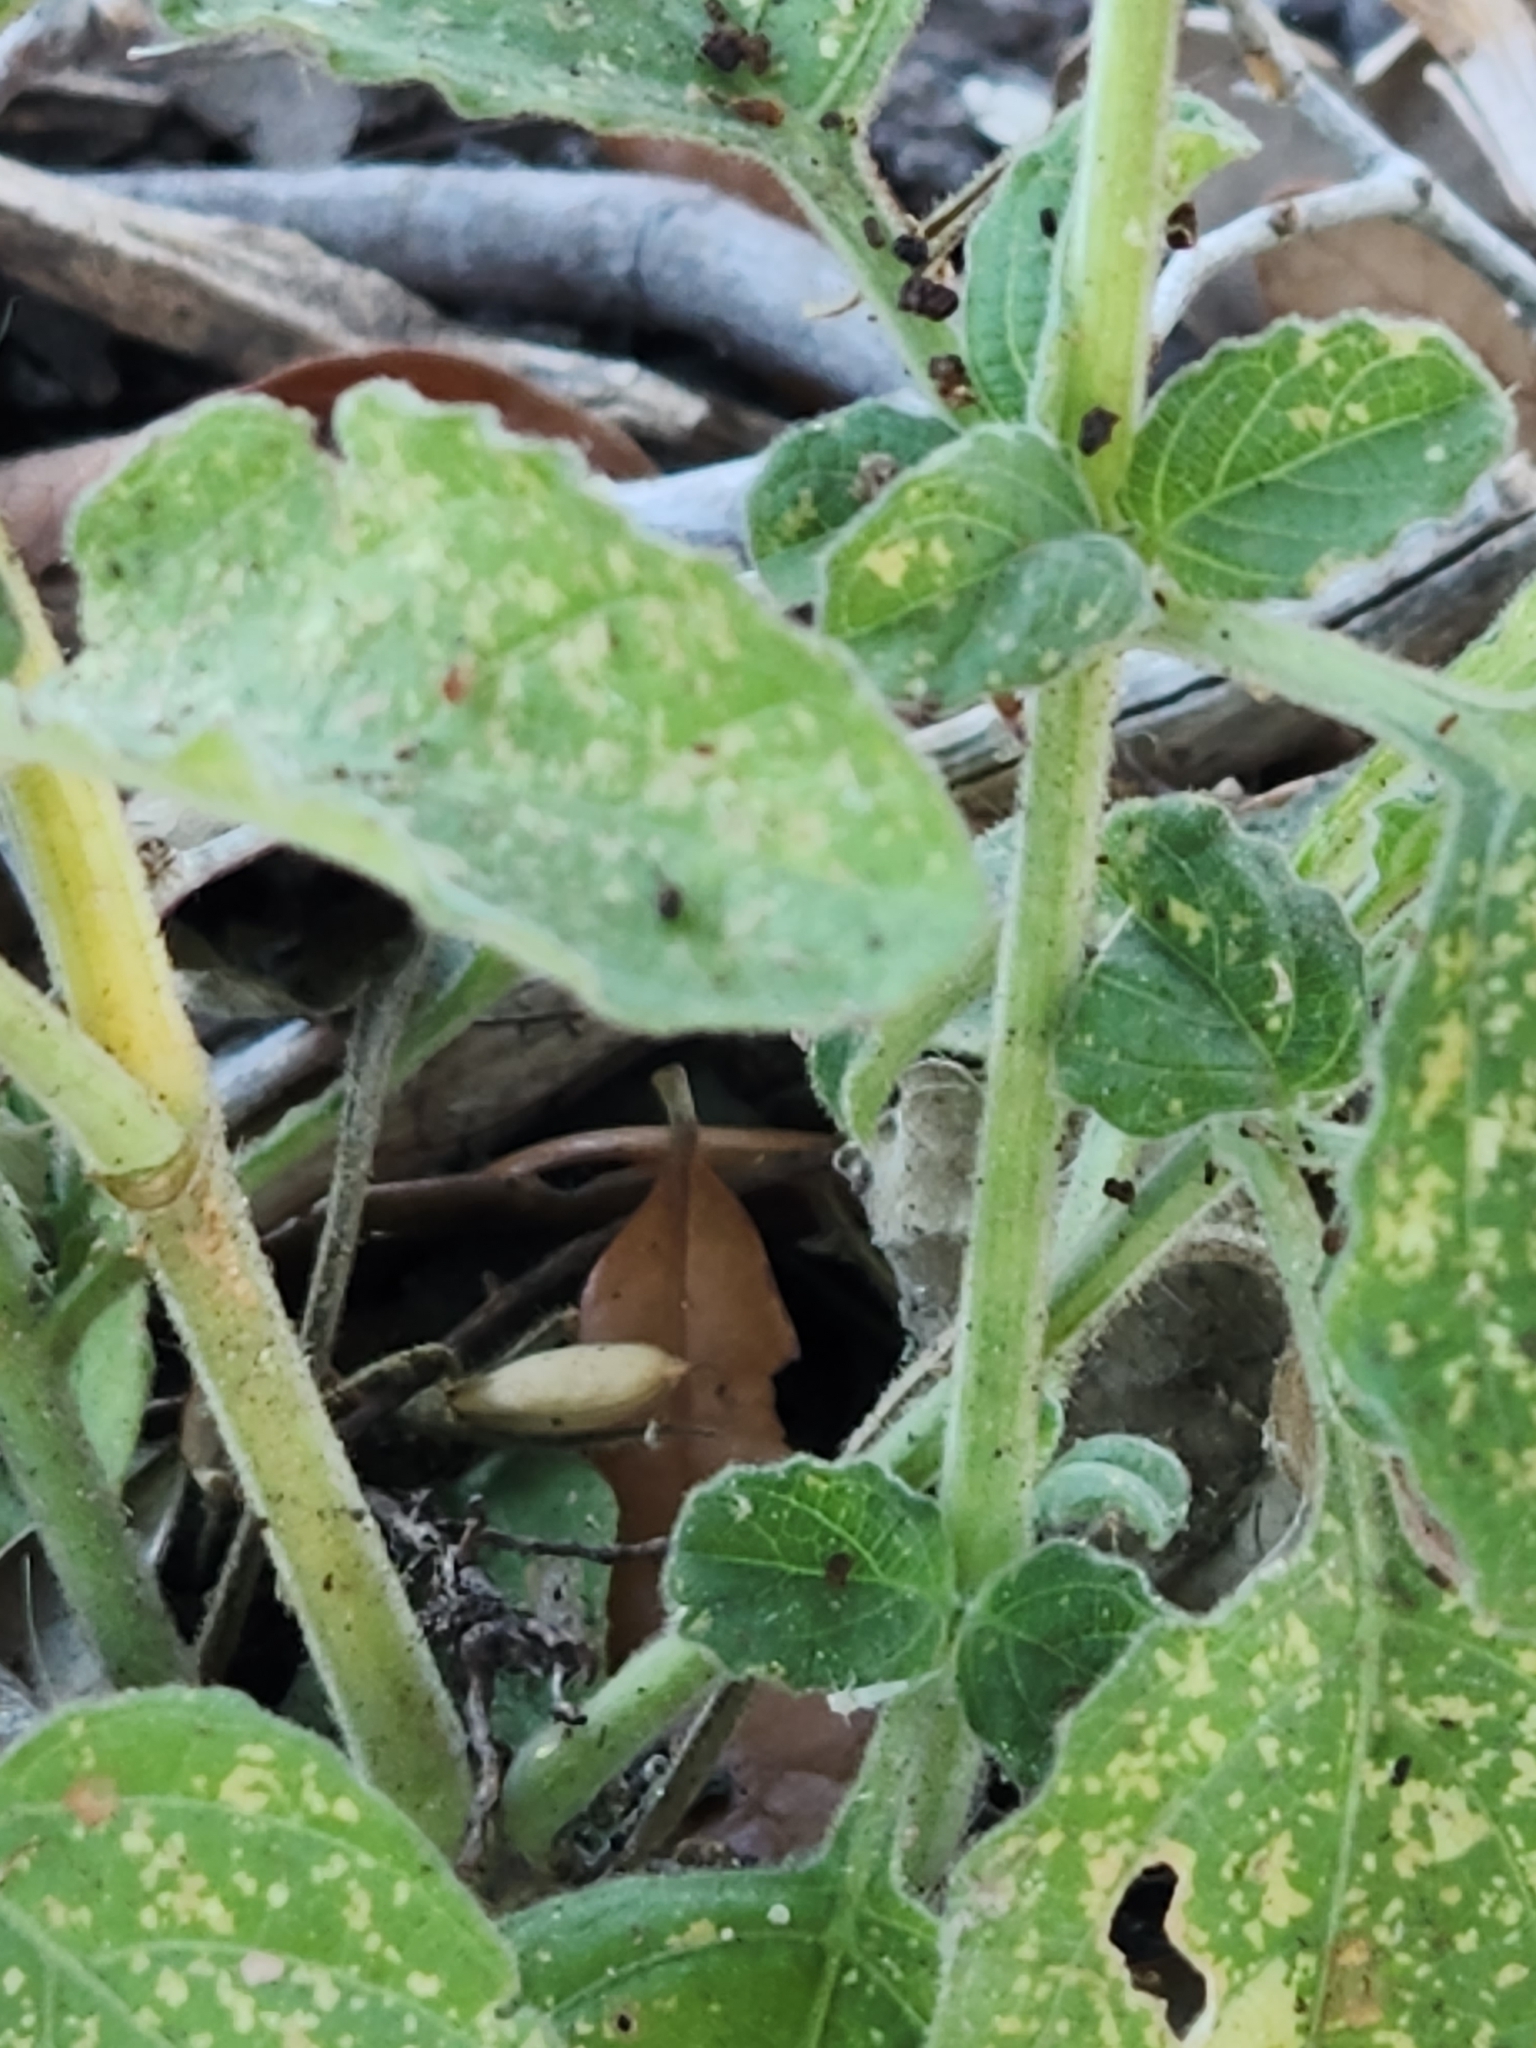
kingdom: Plantae
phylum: Tracheophyta
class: Magnoliopsida
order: Lamiales
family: Acanthaceae
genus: Ruellia
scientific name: Ruellia ciliatiflora
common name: Hairyflower wild petunia
